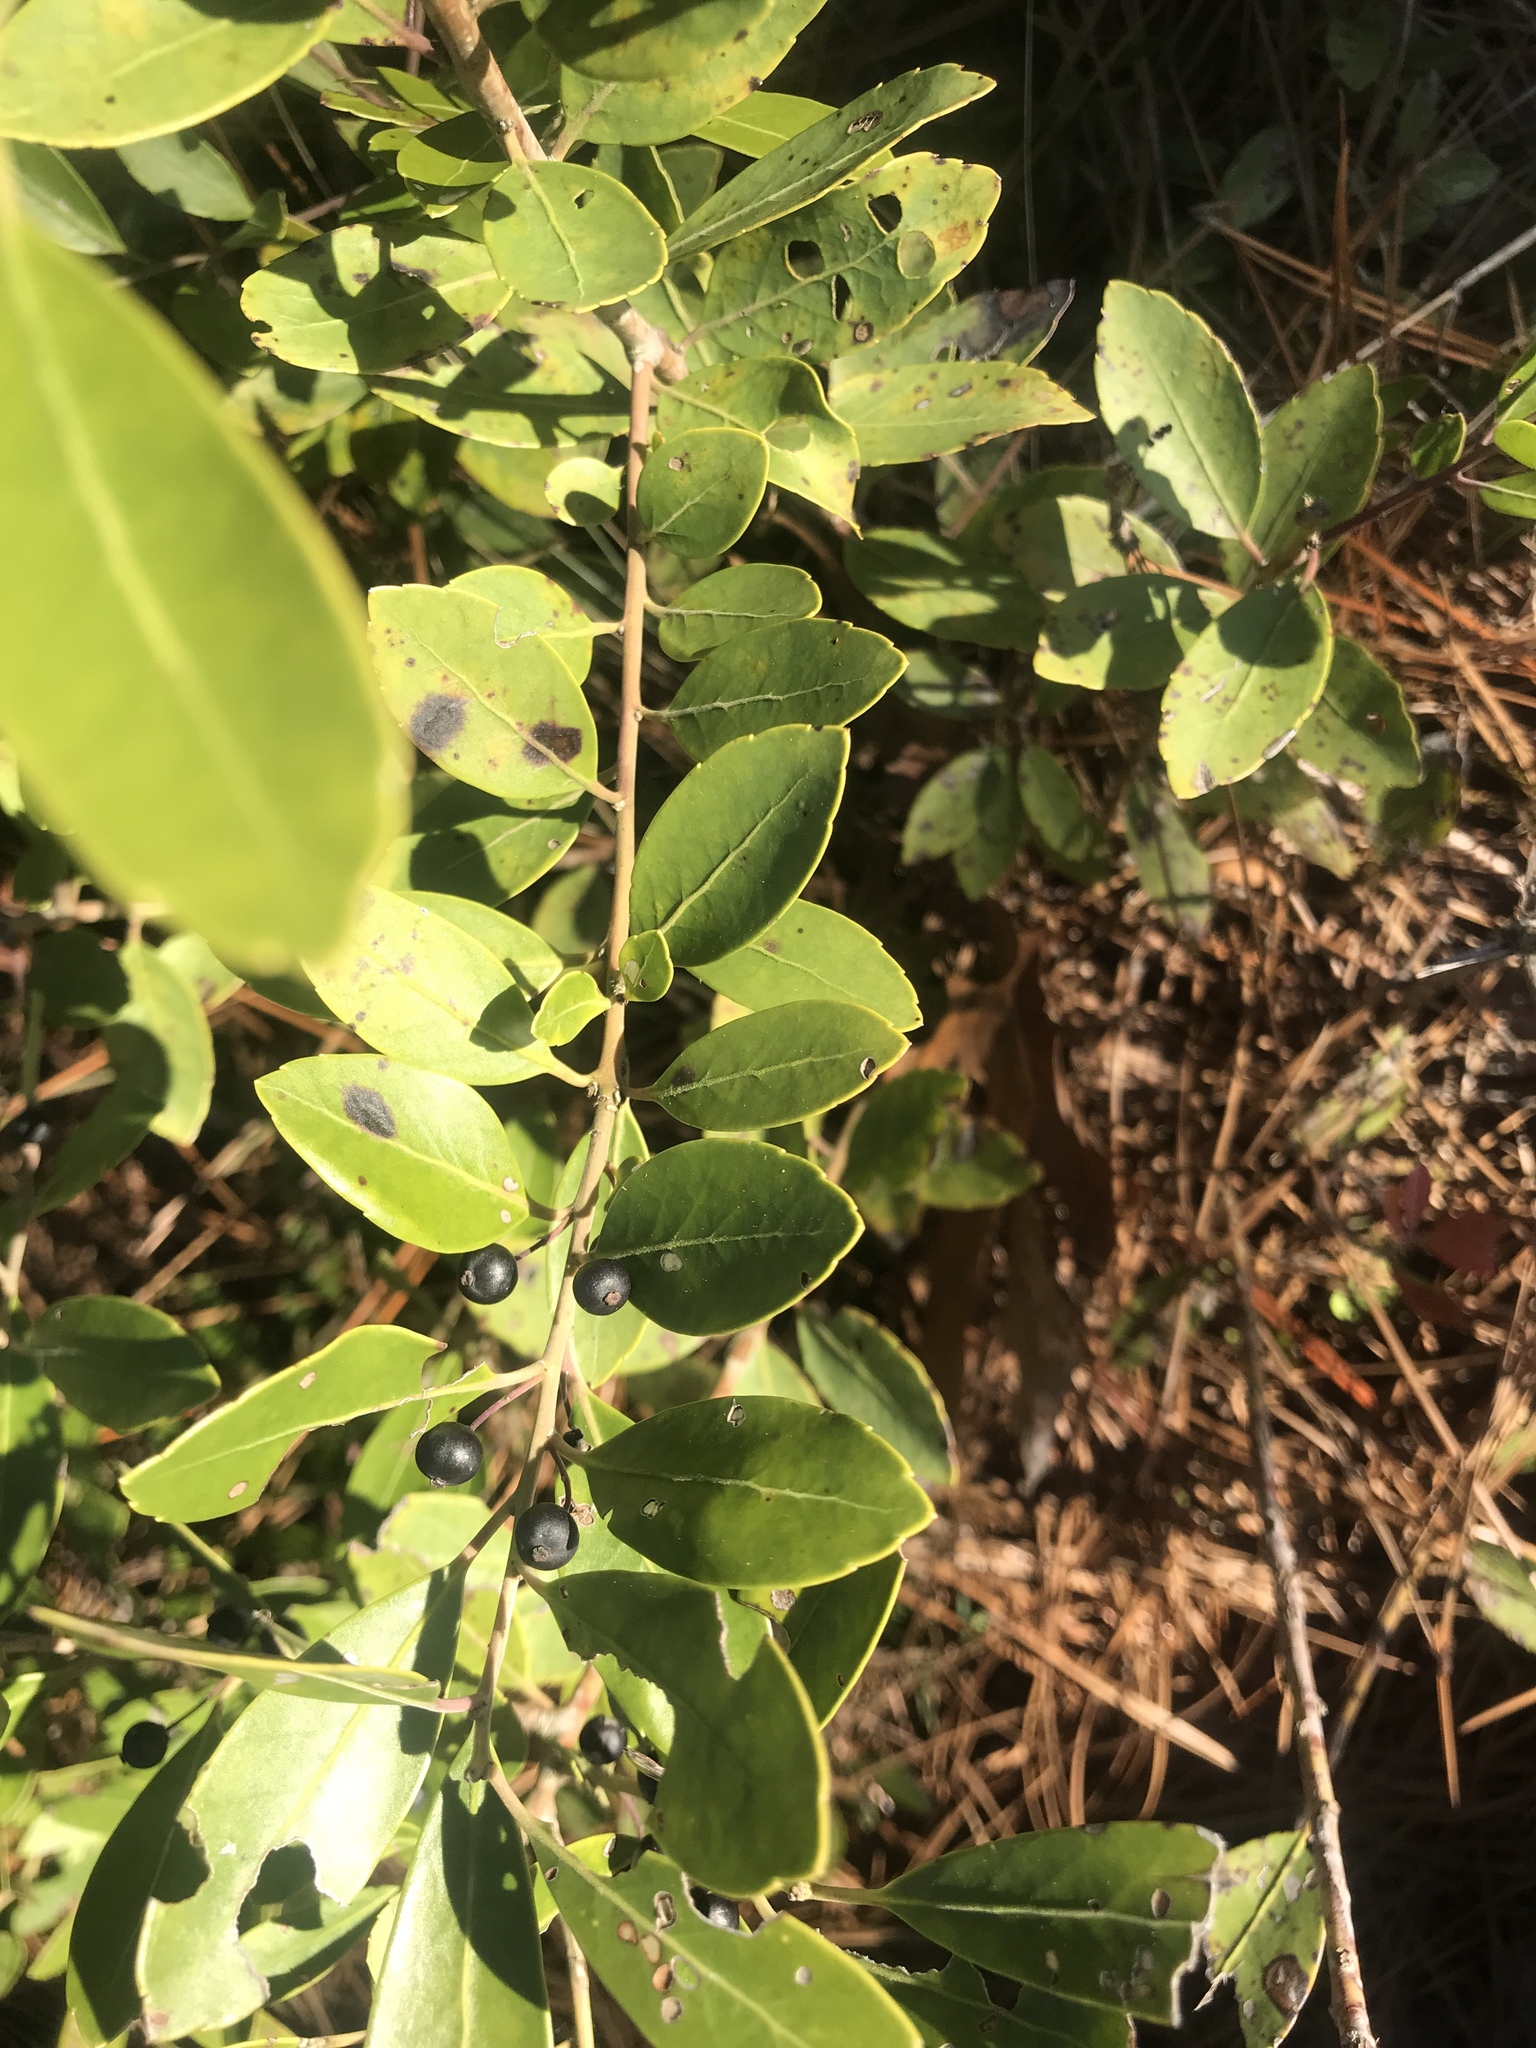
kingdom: Plantae
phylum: Tracheophyta
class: Magnoliopsida
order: Aquifoliales
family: Aquifoliaceae
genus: Ilex
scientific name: Ilex glabra
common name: Bitter gallberry
